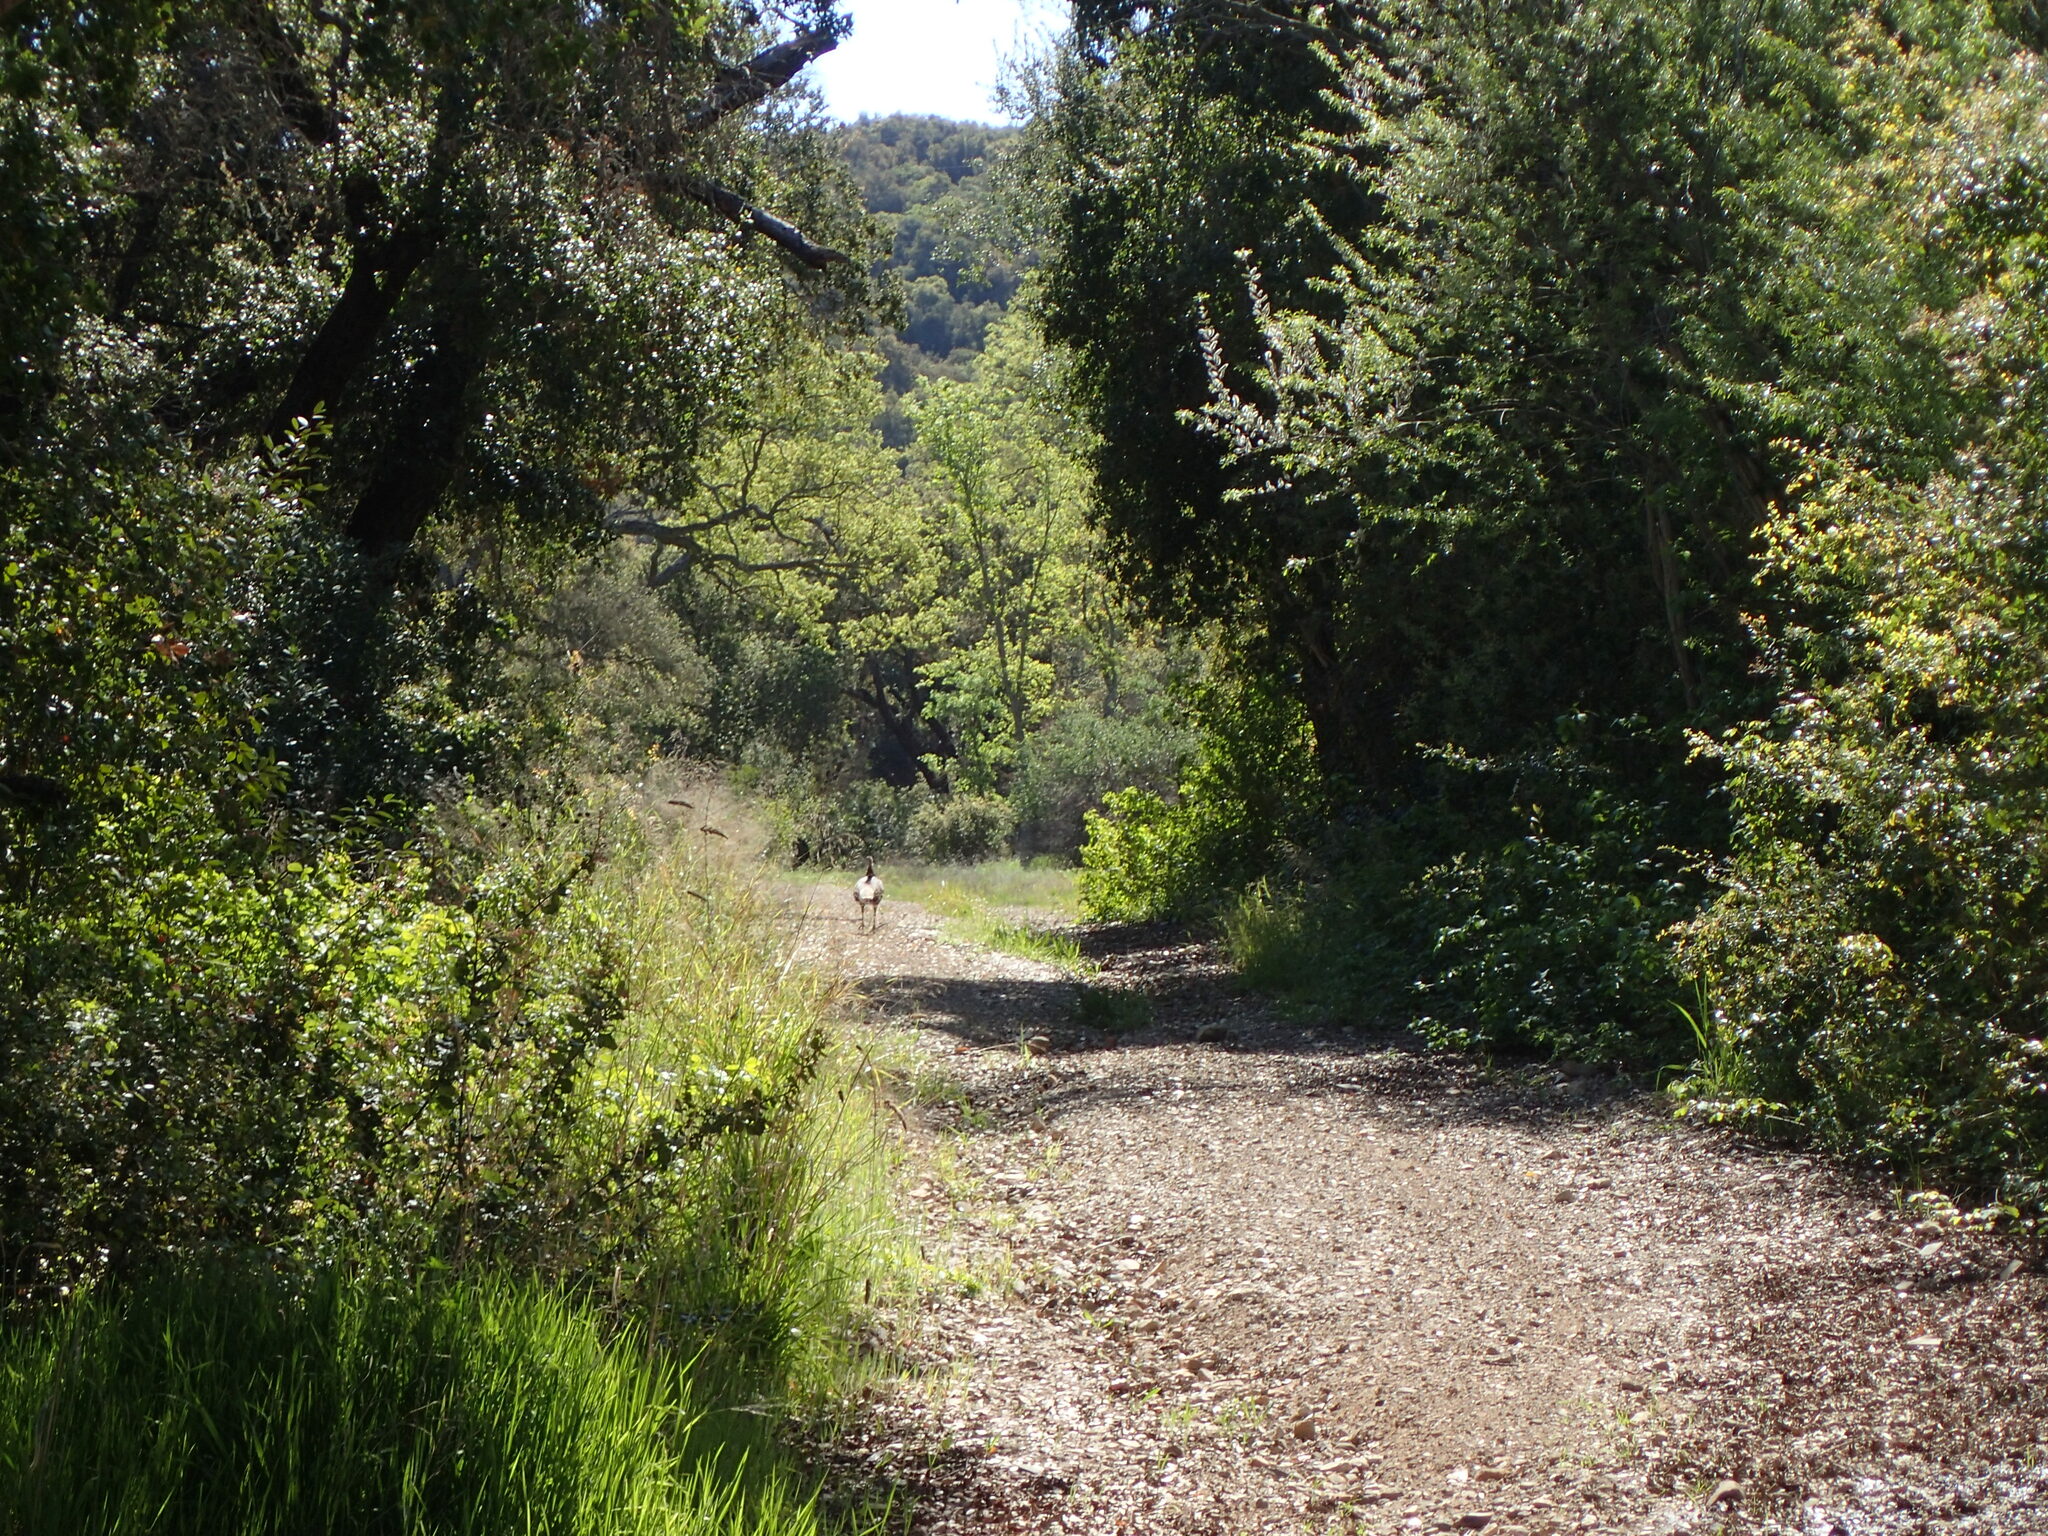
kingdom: Animalia
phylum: Chordata
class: Aves
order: Galliformes
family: Phasianidae
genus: Meleagris
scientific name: Meleagris gallopavo
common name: Wild turkey
